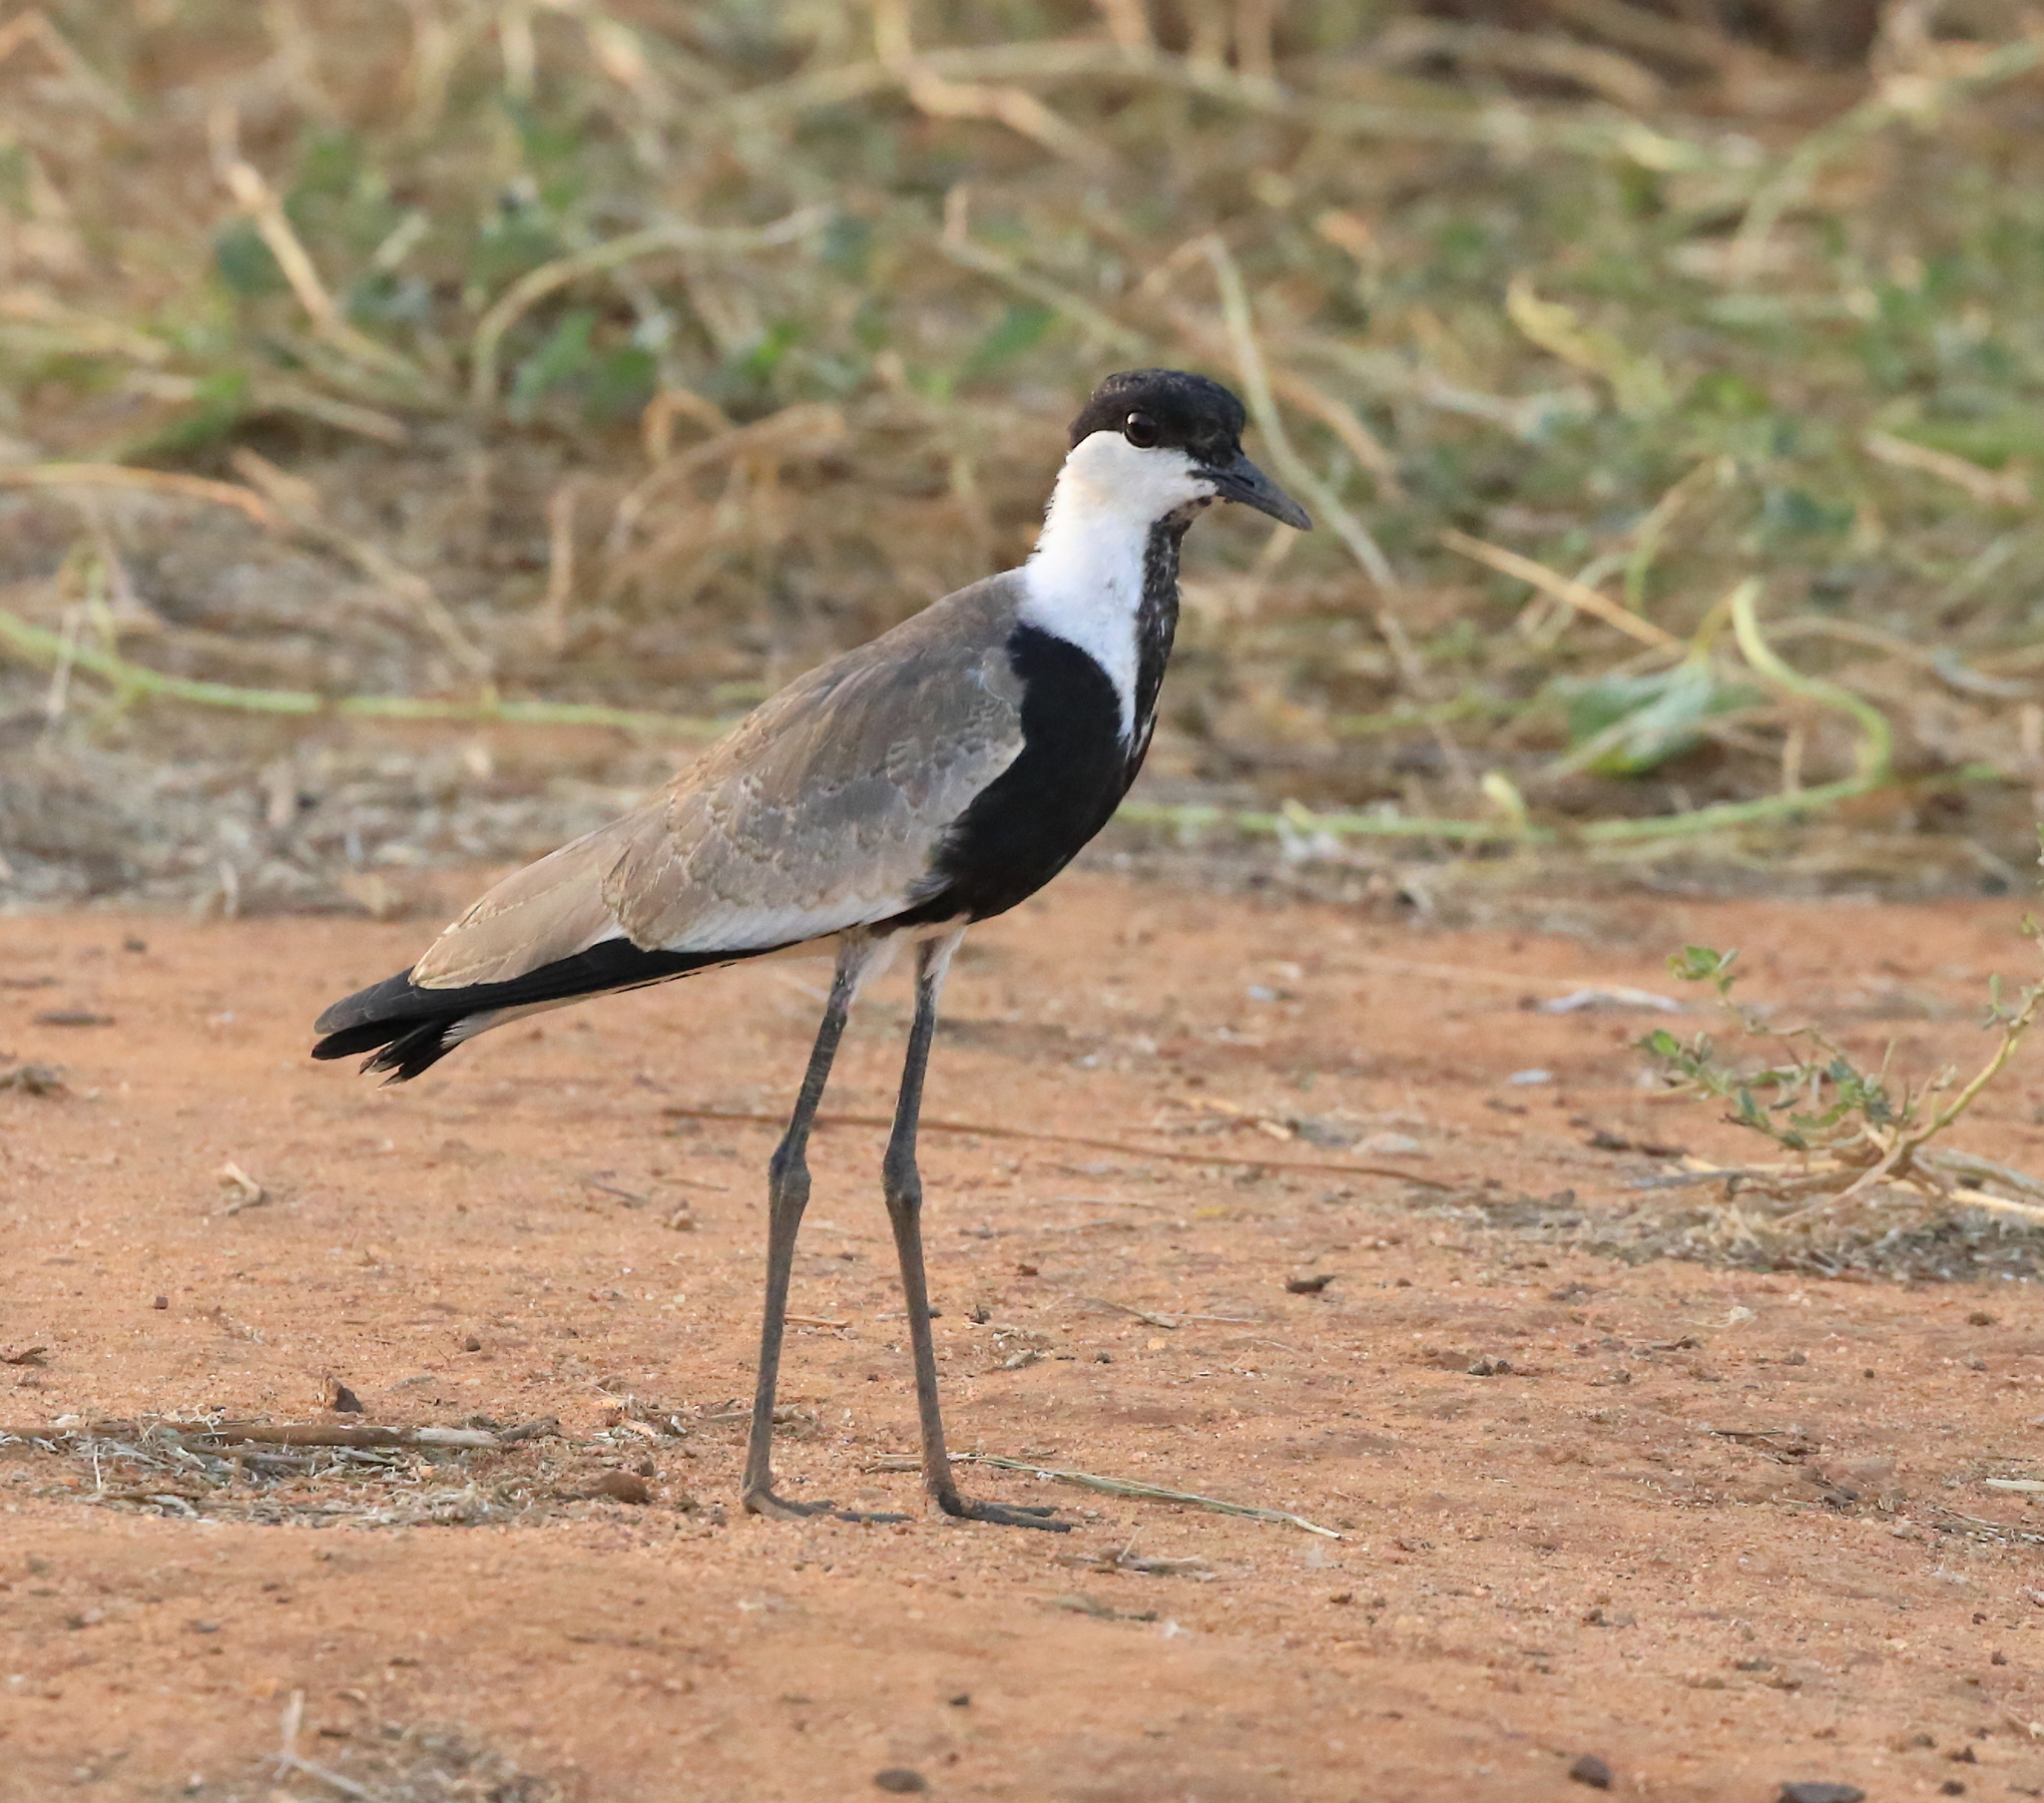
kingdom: Animalia
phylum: Chordata
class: Aves
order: Charadriiformes
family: Charadriidae
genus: Vanellus
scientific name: Vanellus spinosus
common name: Spur-winged lapwing
